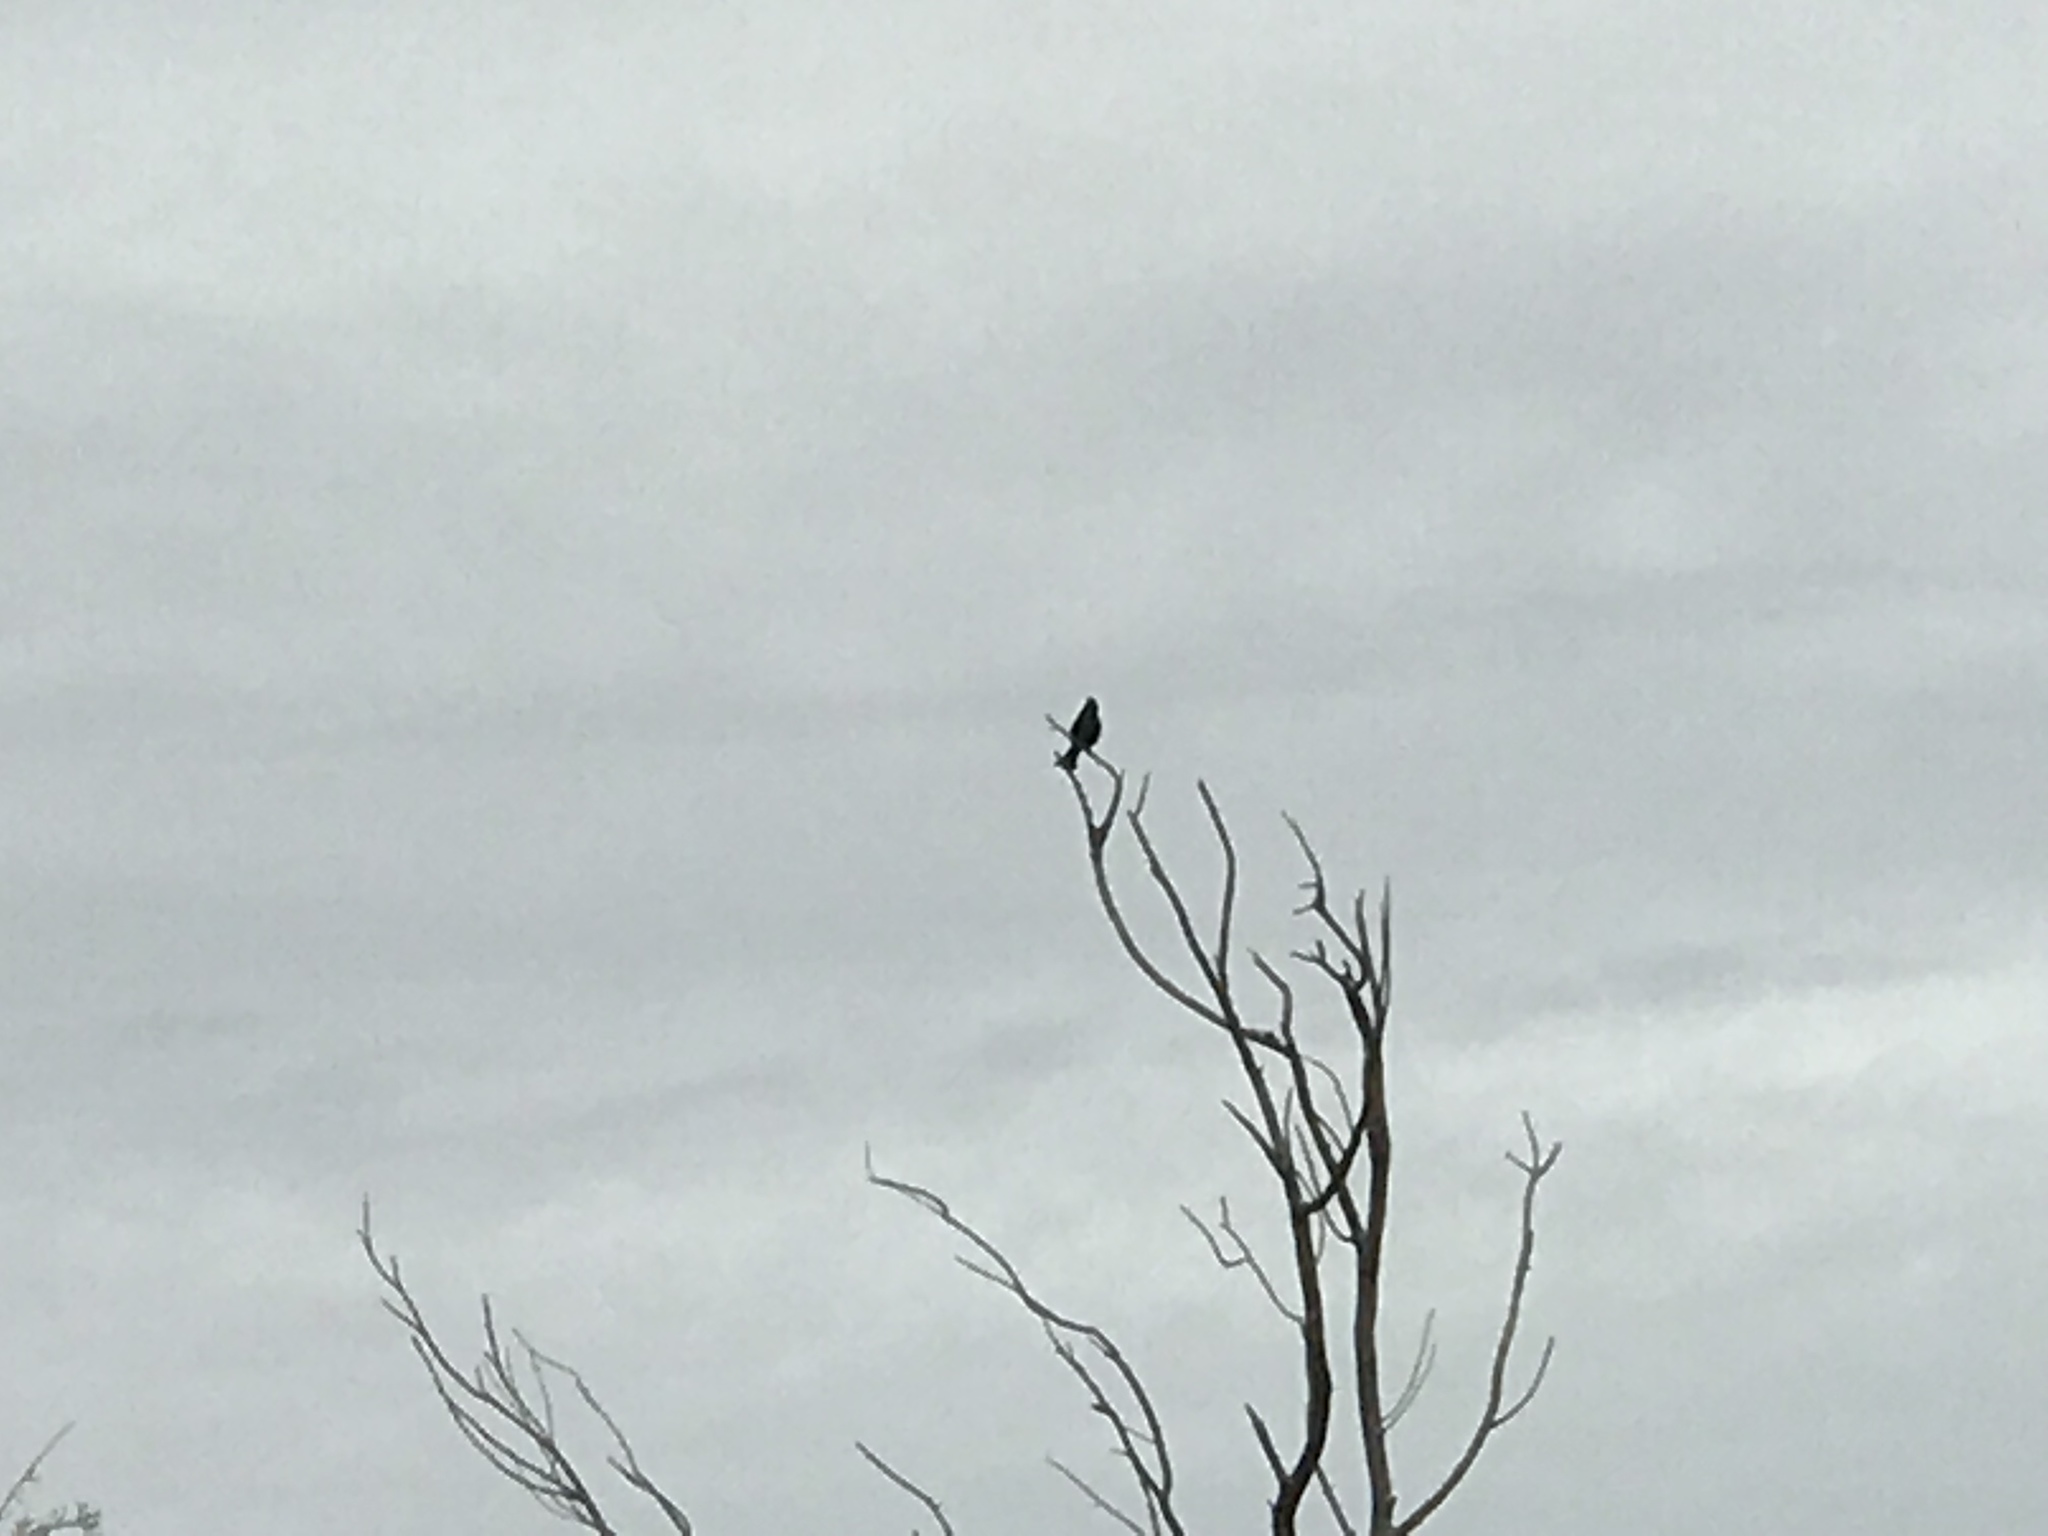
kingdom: Animalia
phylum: Chordata
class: Aves
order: Passeriformes
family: Ptilogonatidae
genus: Phainopepla
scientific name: Phainopepla nitens
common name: Phainopepla
